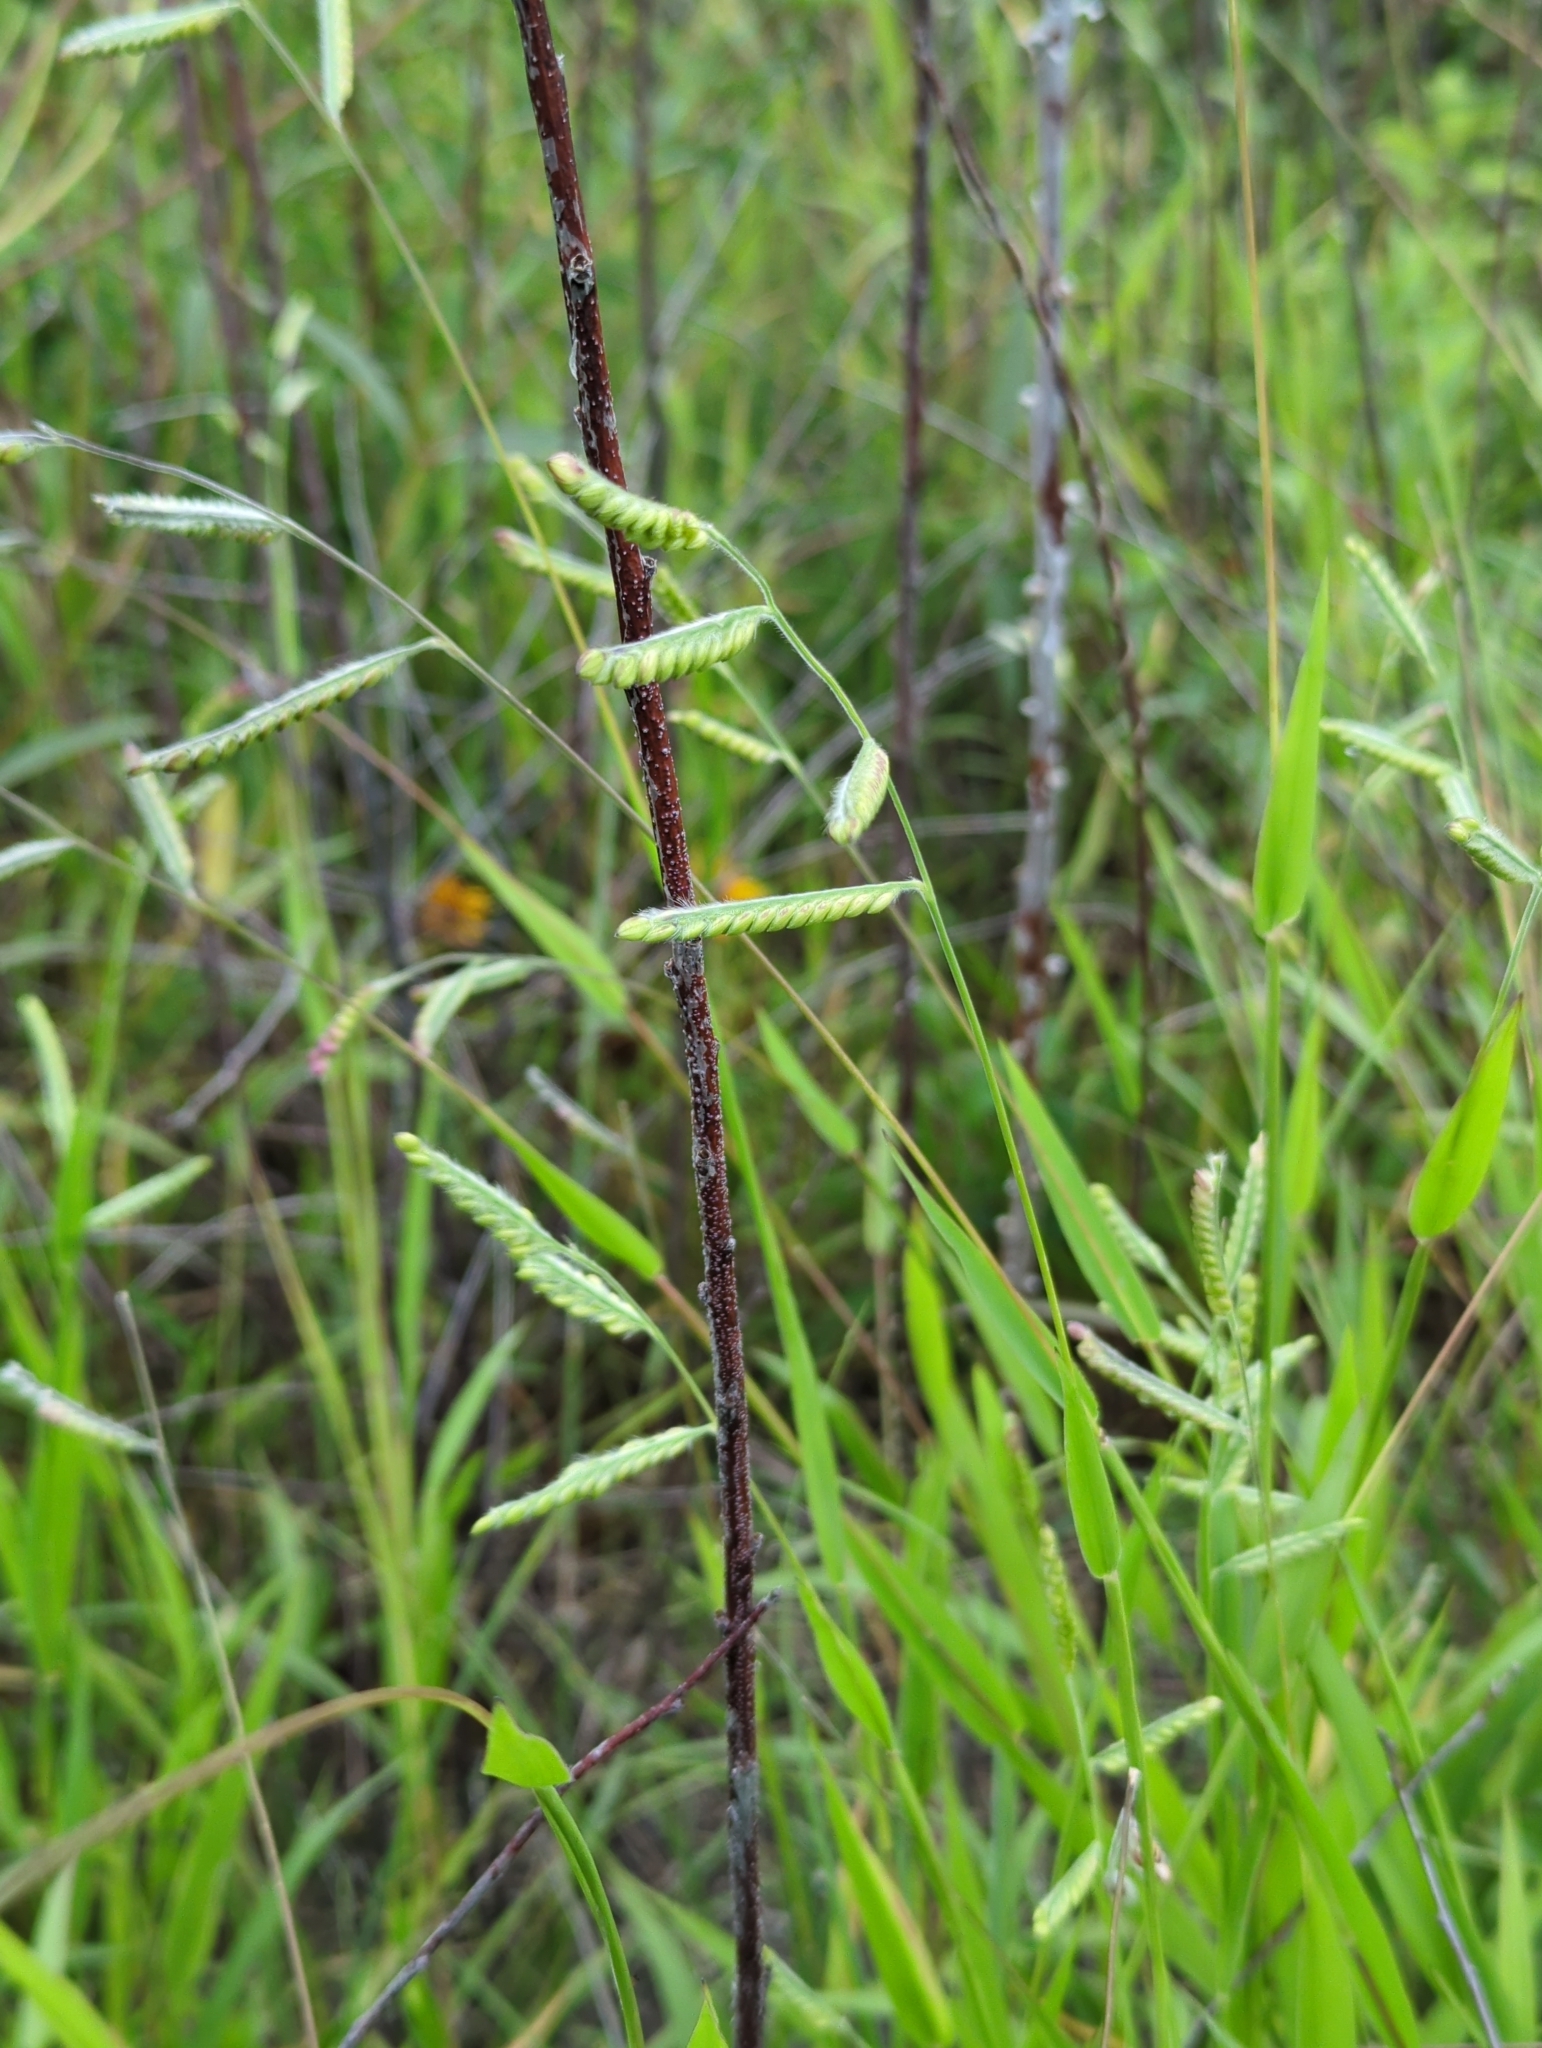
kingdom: Plantae
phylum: Tracheophyta
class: Liliopsida
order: Poales
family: Poaceae
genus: Eriochloa
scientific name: Eriochloa villosa
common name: Hairy cupgrass
